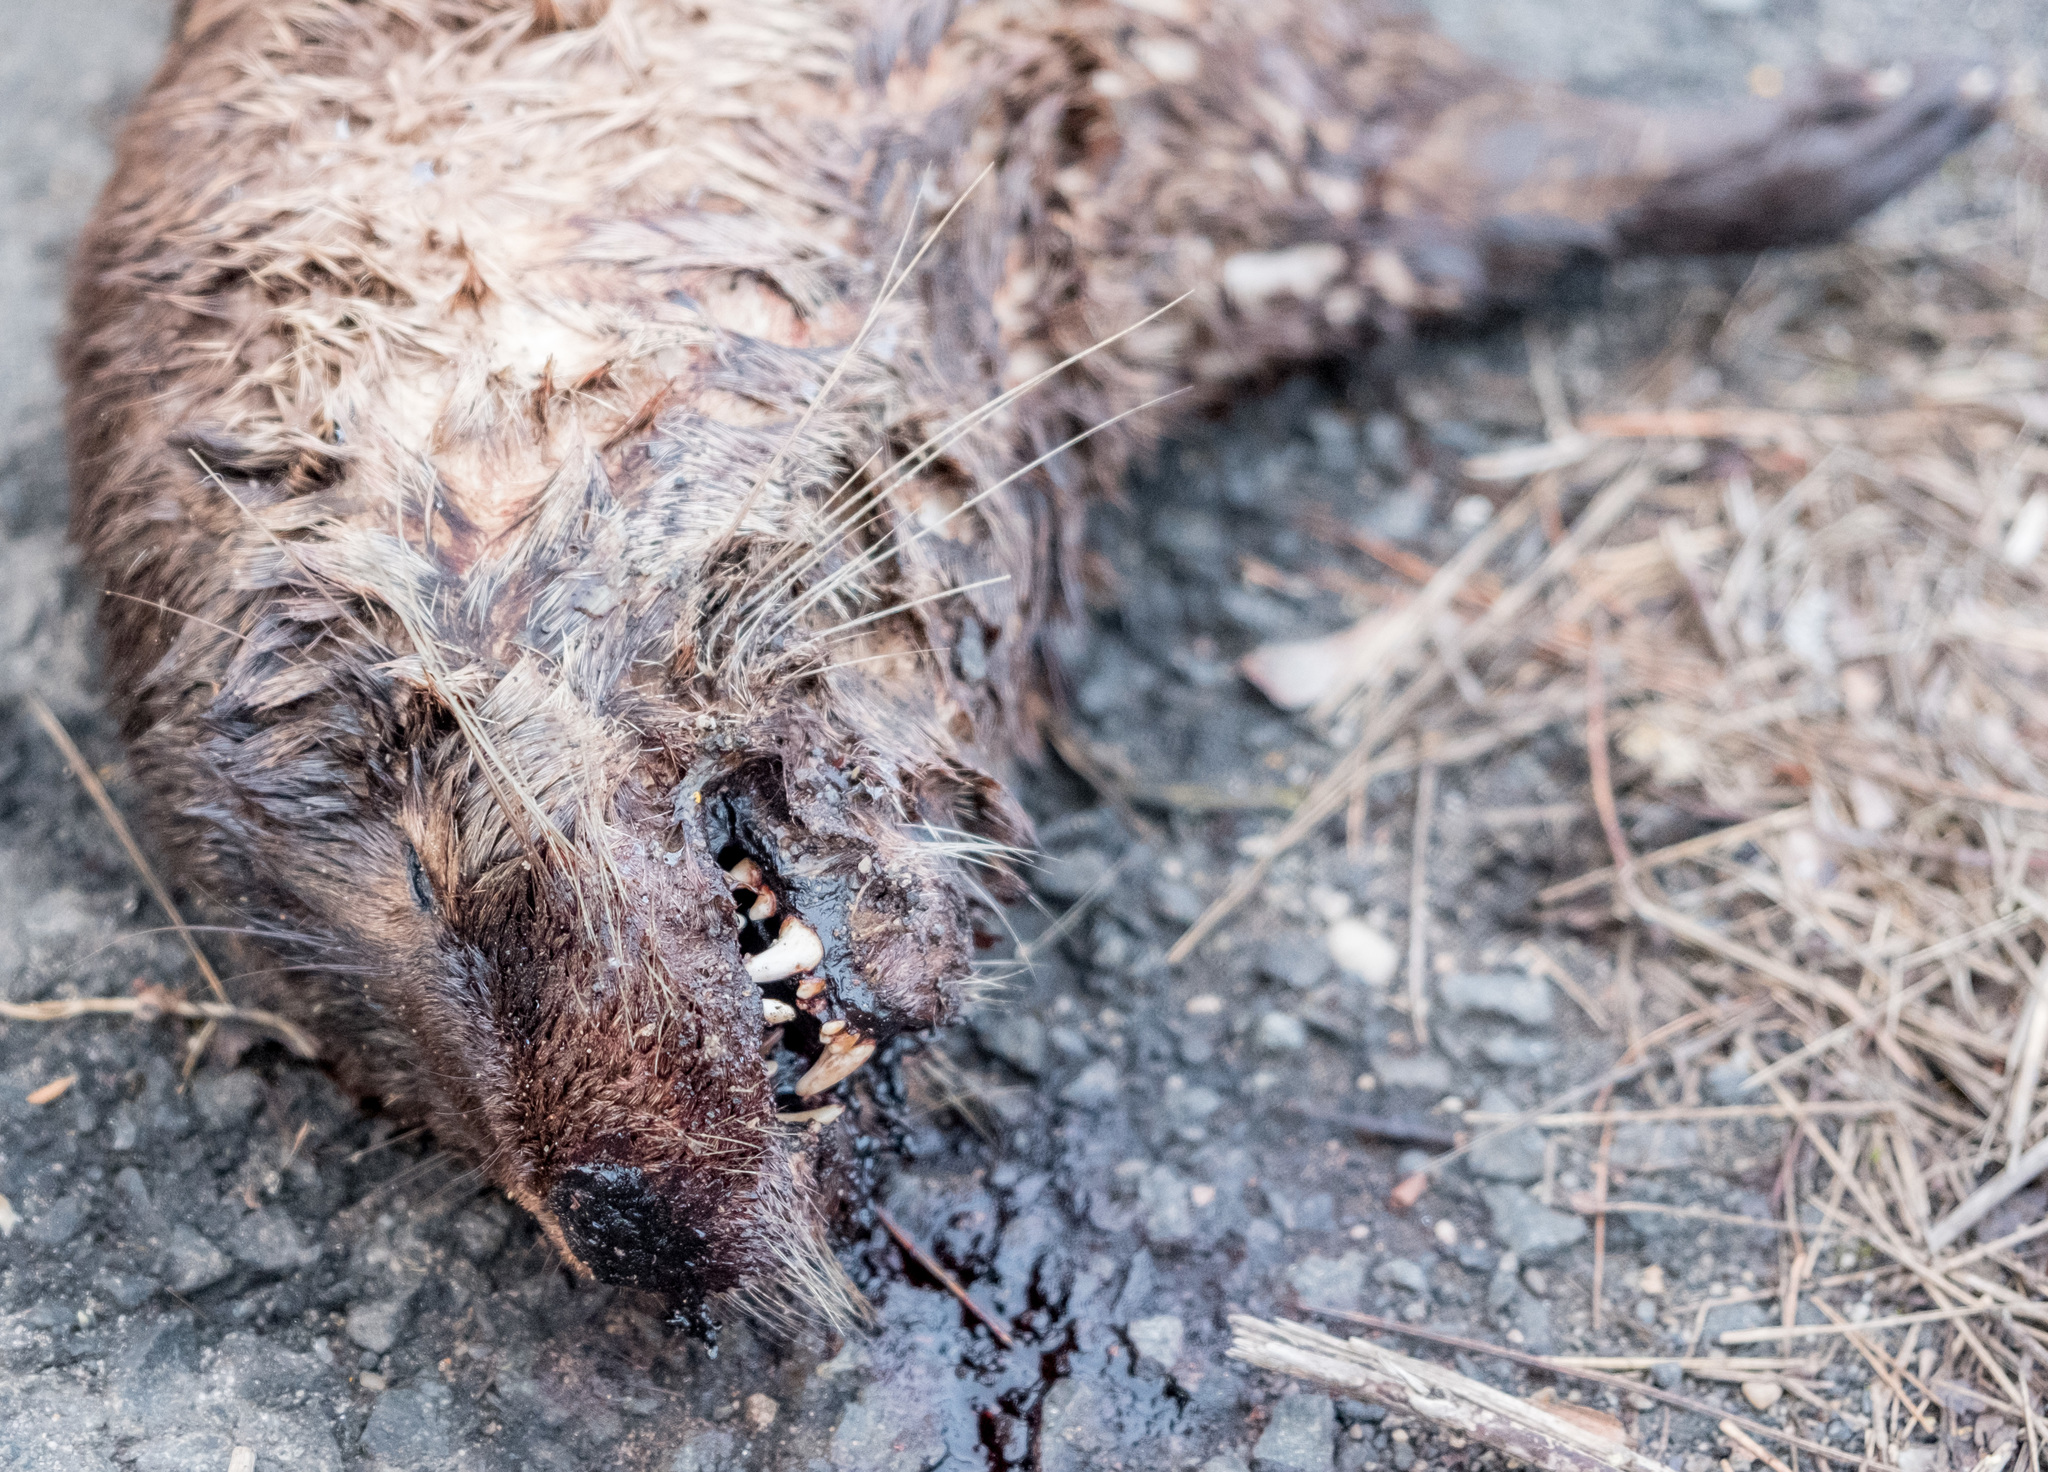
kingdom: Animalia
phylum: Chordata
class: Mammalia
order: Carnivora
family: Mustelidae
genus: Lontra
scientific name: Lontra canadensis
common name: North american river otter
